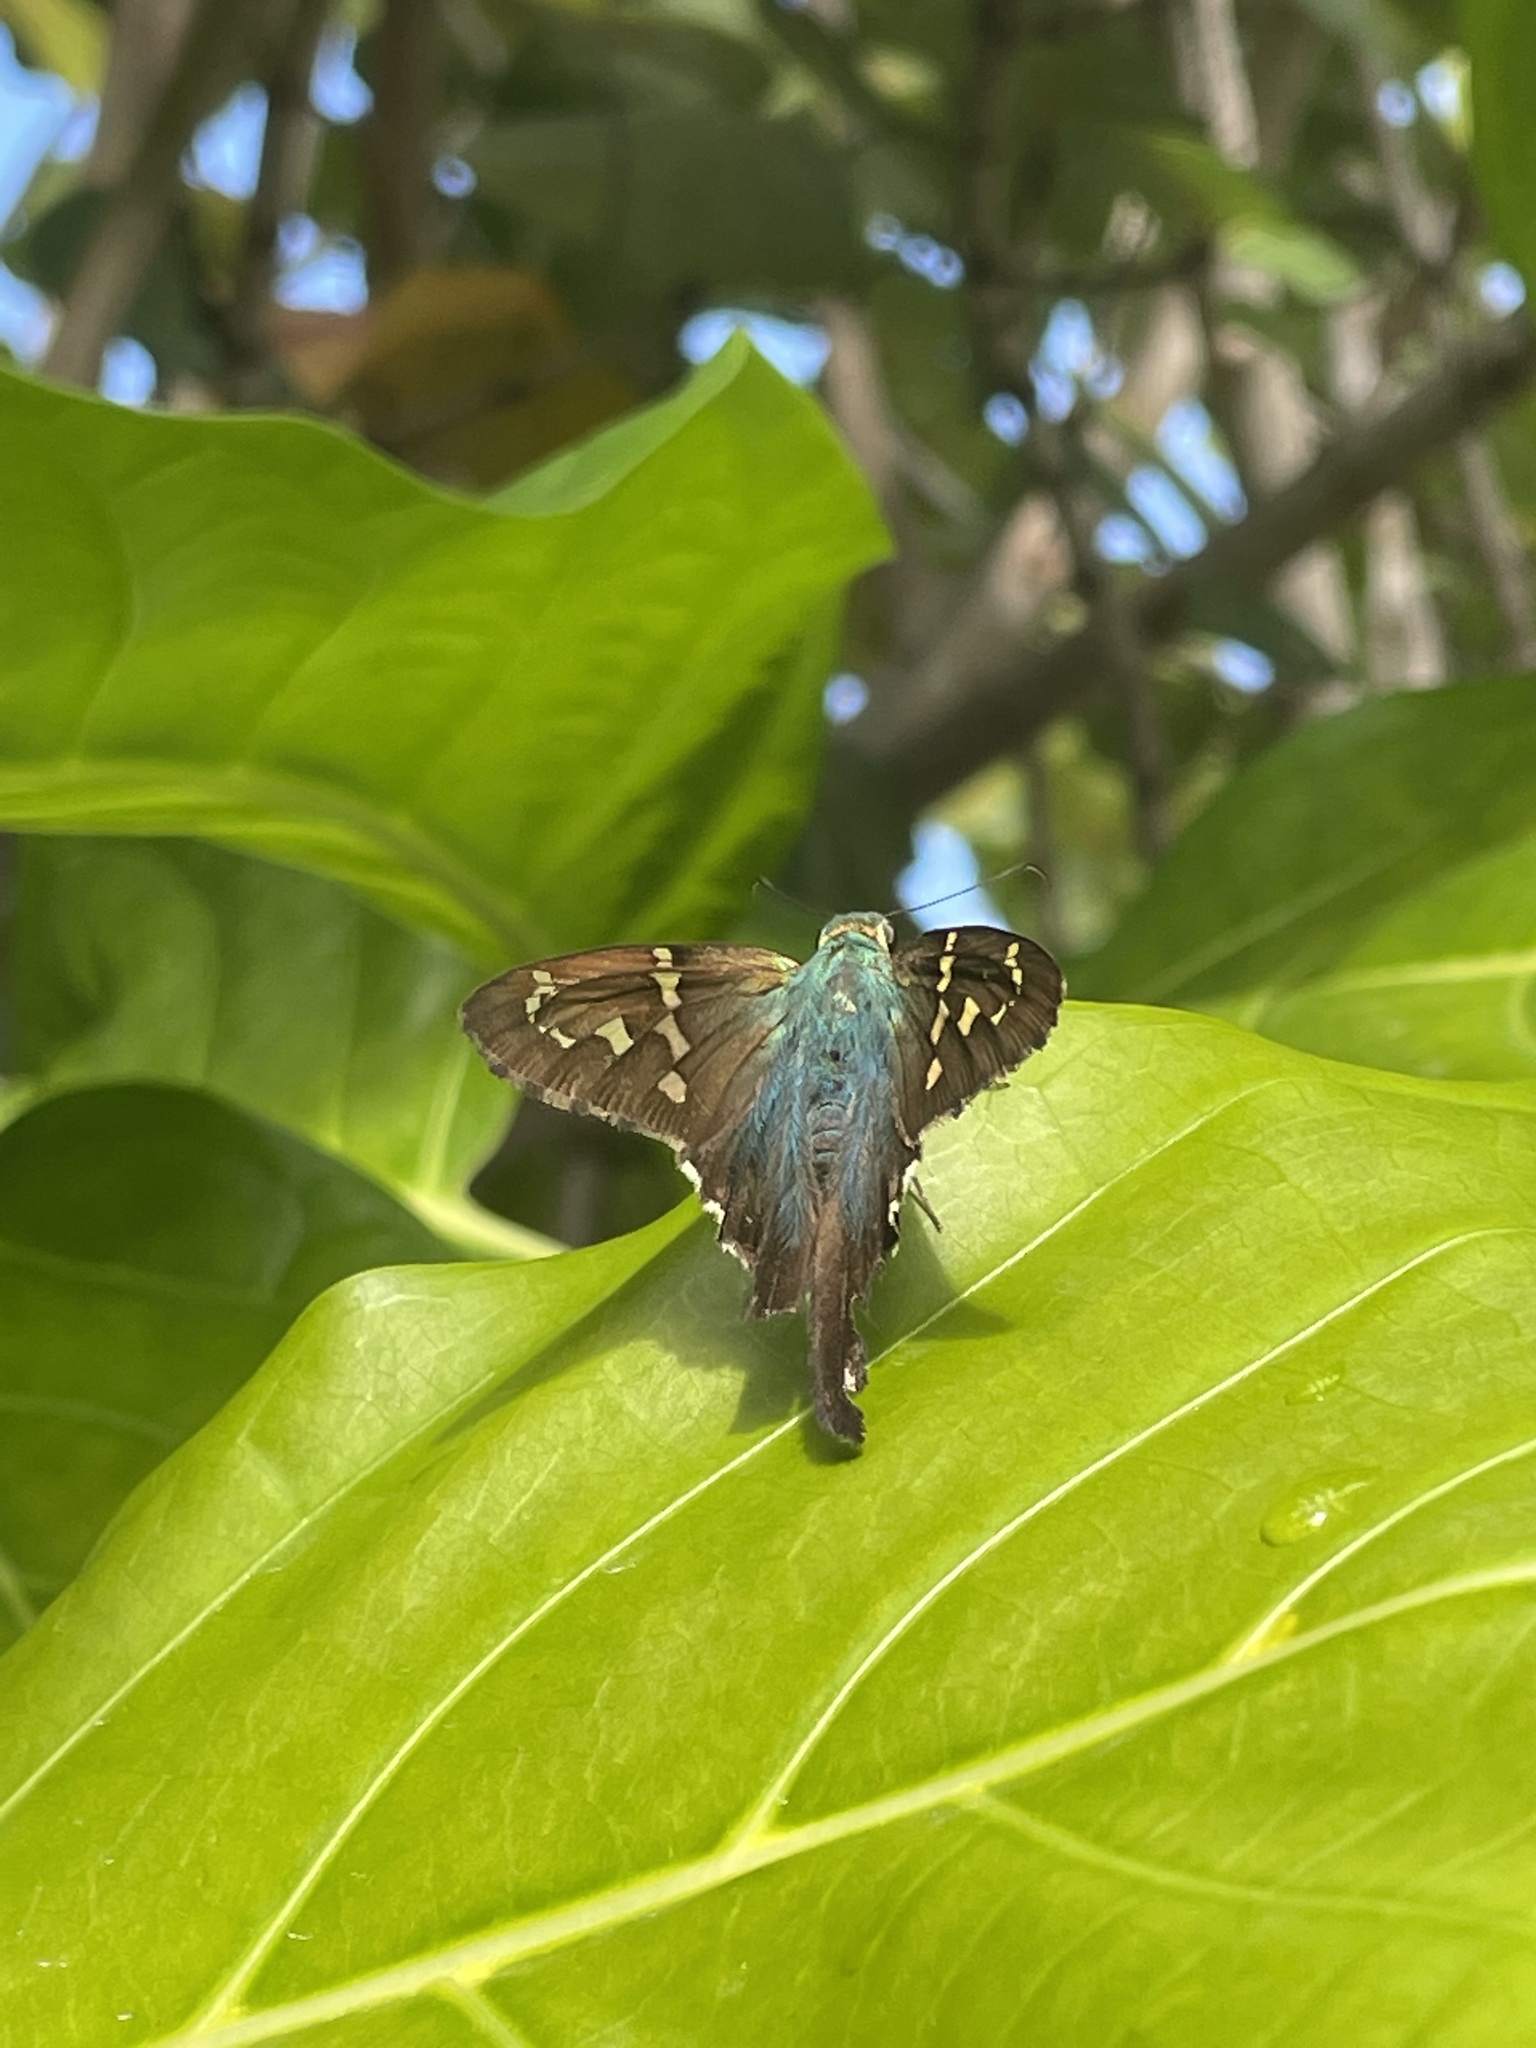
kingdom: Animalia
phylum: Arthropoda
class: Insecta
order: Lepidoptera
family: Hesperiidae
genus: Urbanus
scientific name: Urbanus proteus
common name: Long-tailed skipper
